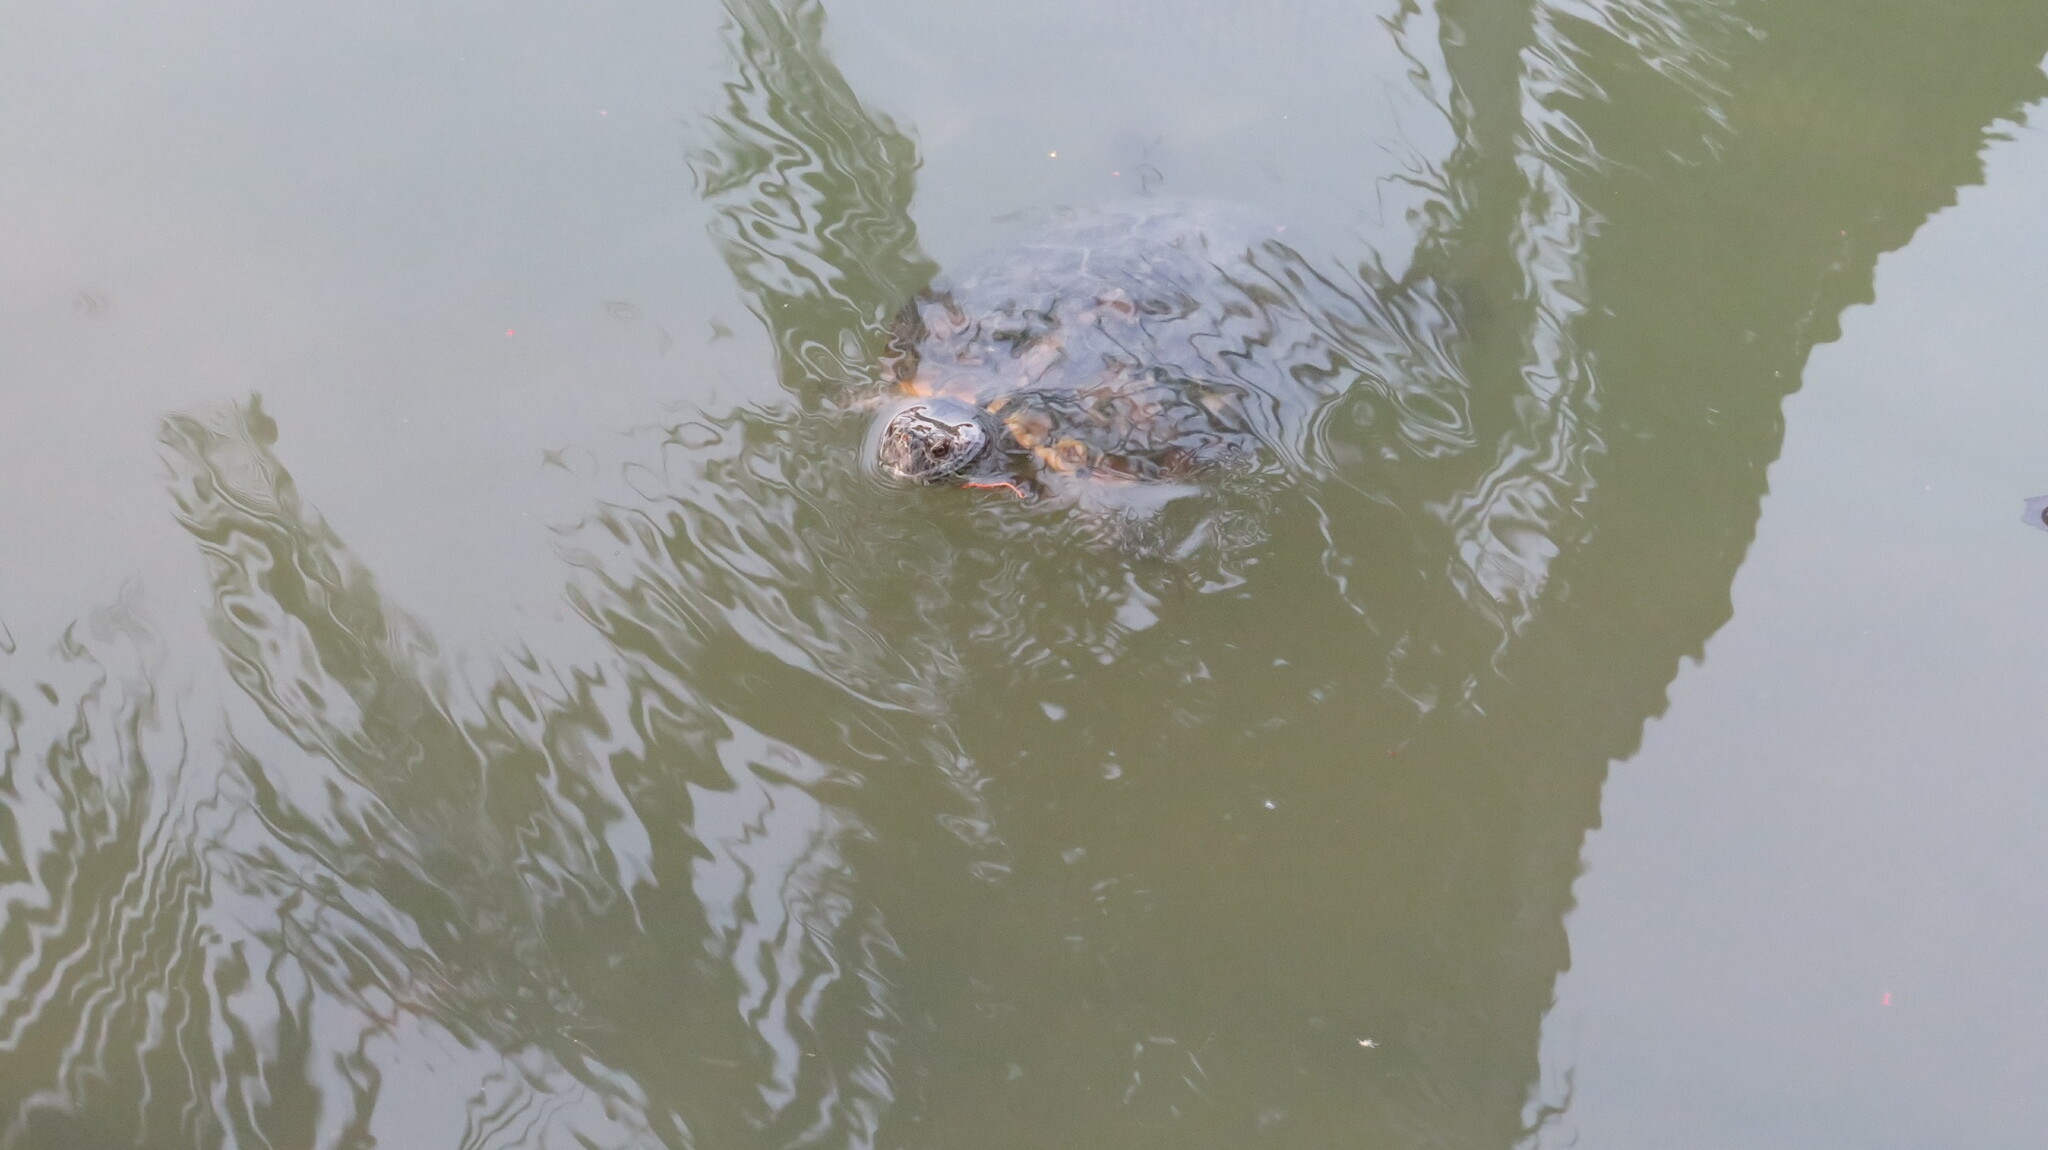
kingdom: Animalia
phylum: Chordata
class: Testudines
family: Emydidae
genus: Trachemys
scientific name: Trachemys scripta
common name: Slider
